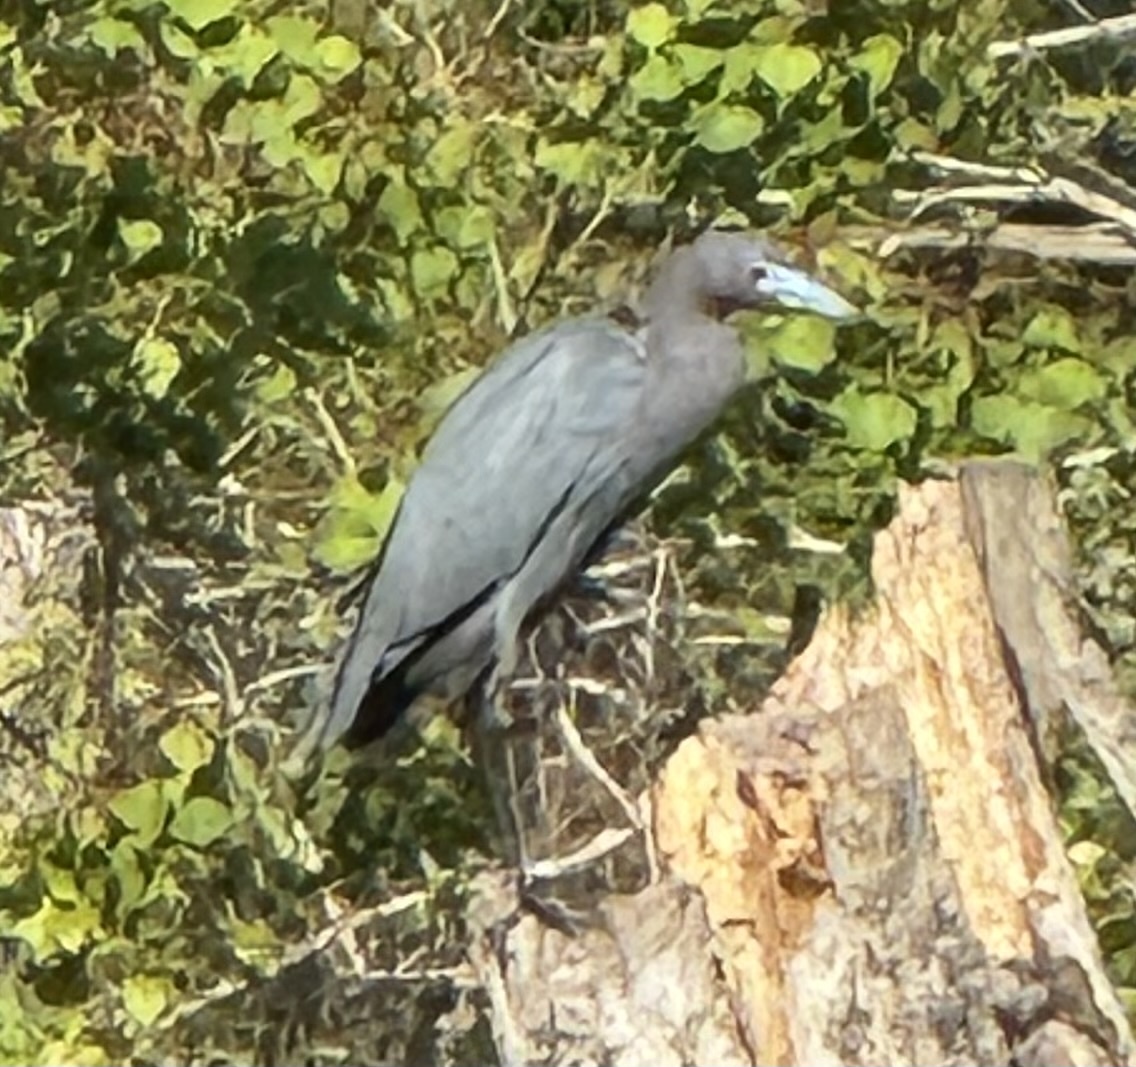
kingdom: Animalia
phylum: Chordata
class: Aves
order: Pelecaniformes
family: Ardeidae
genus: Egretta
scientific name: Egretta caerulea
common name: Little blue heron
